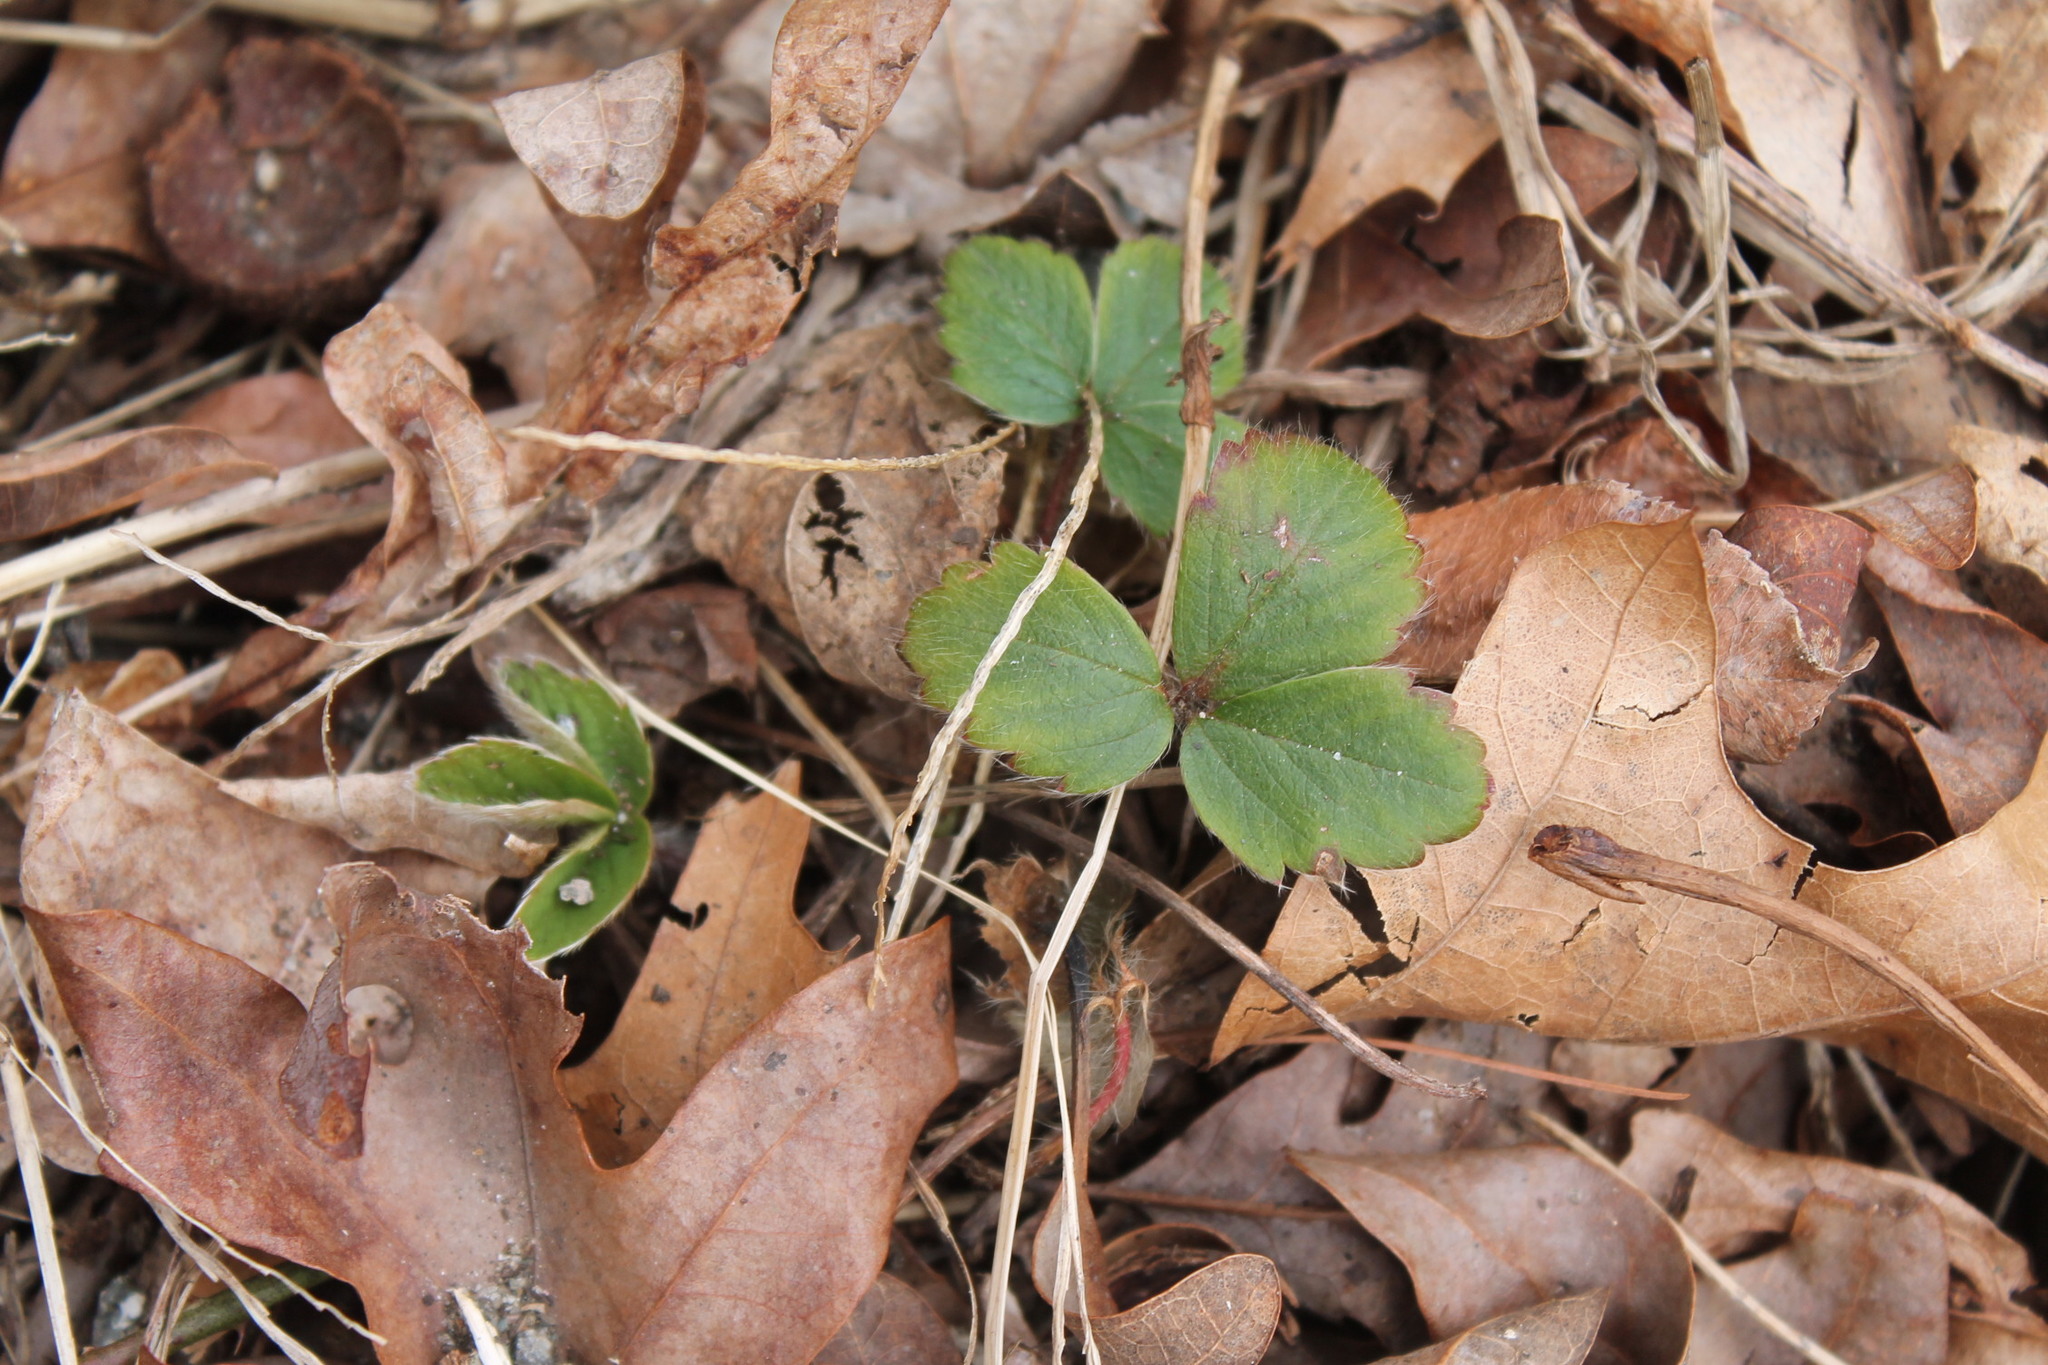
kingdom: Plantae
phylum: Tracheophyta
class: Magnoliopsida
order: Rosales
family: Rosaceae
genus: Fragaria
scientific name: Fragaria virginiana
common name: Thickleaved wild strawberry
